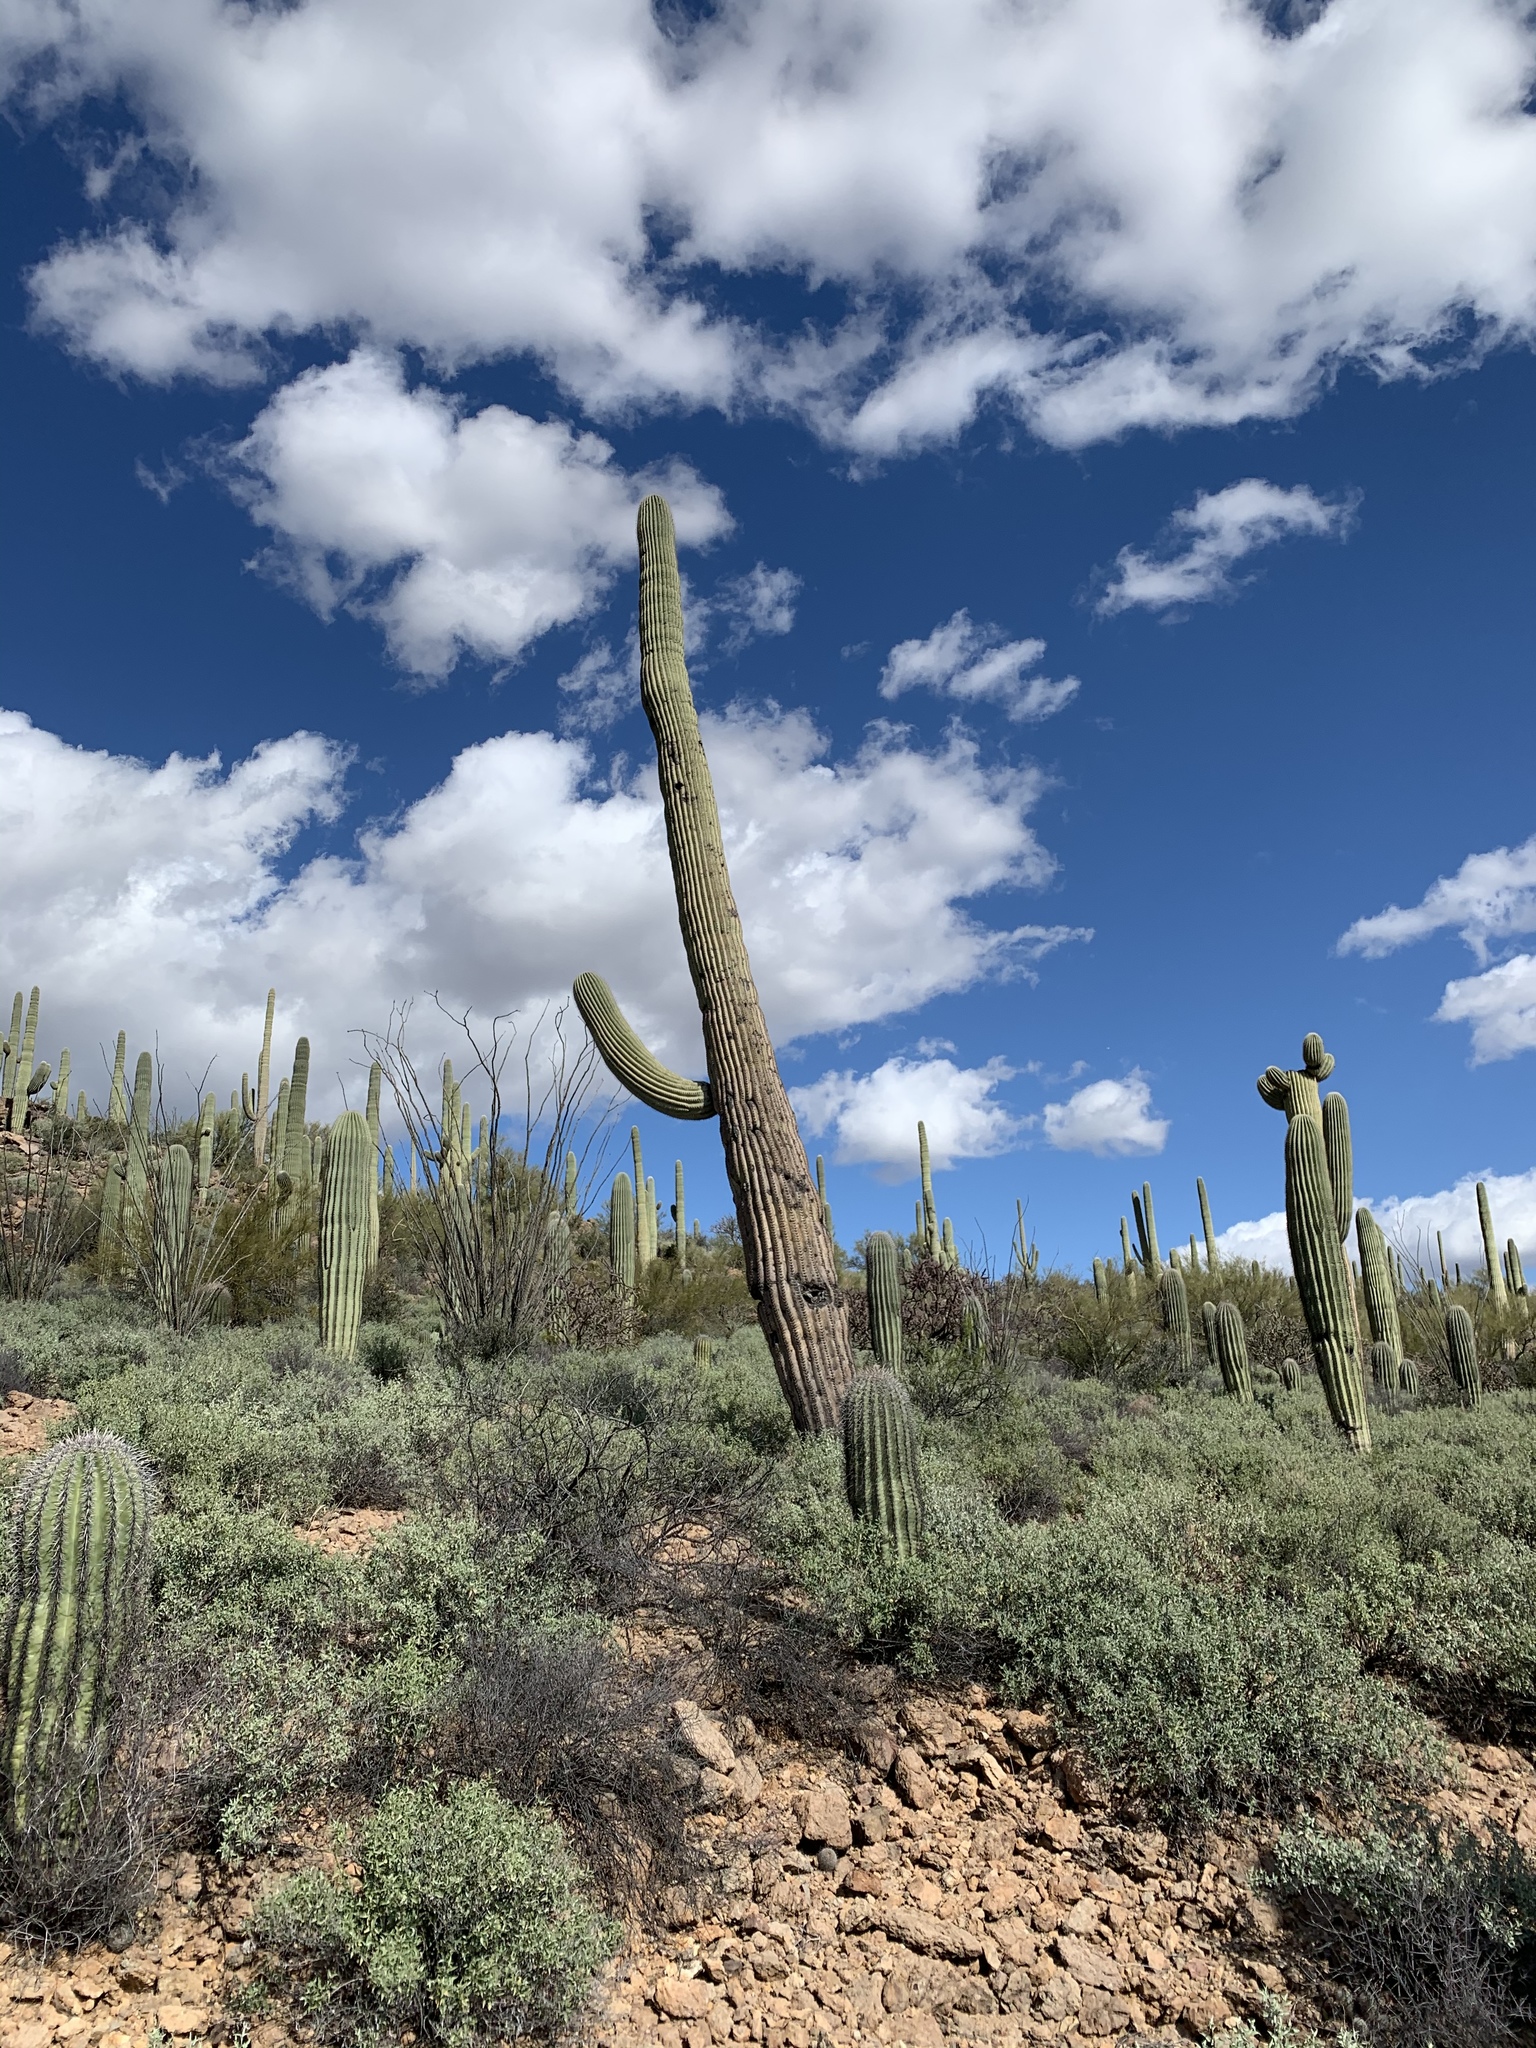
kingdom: Plantae
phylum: Tracheophyta
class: Magnoliopsida
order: Caryophyllales
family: Cactaceae
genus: Carnegiea
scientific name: Carnegiea gigantea
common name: Saguaro
